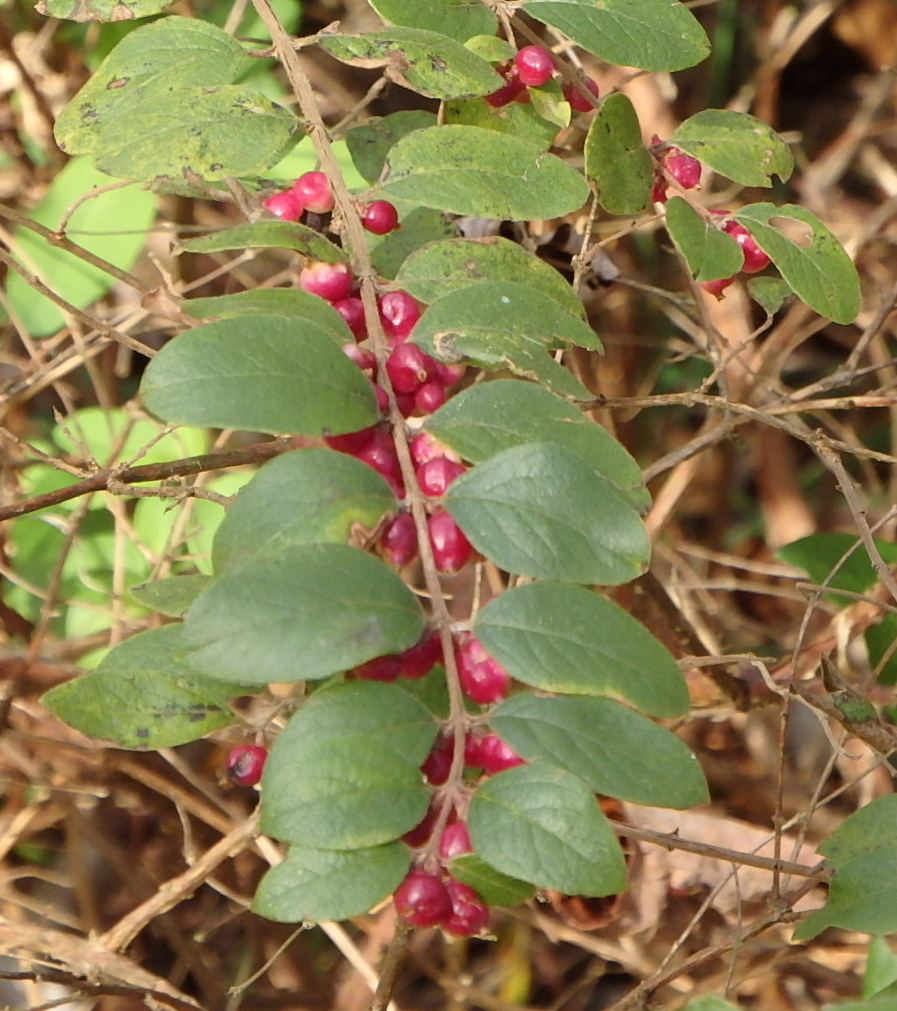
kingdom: Plantae
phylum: Tracheophyta
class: Magnoliopsida
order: Dipsacales
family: Caprifoliaceae
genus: Symphoricarpos
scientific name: Symphoricarpos orbiculatus
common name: Coralberry
